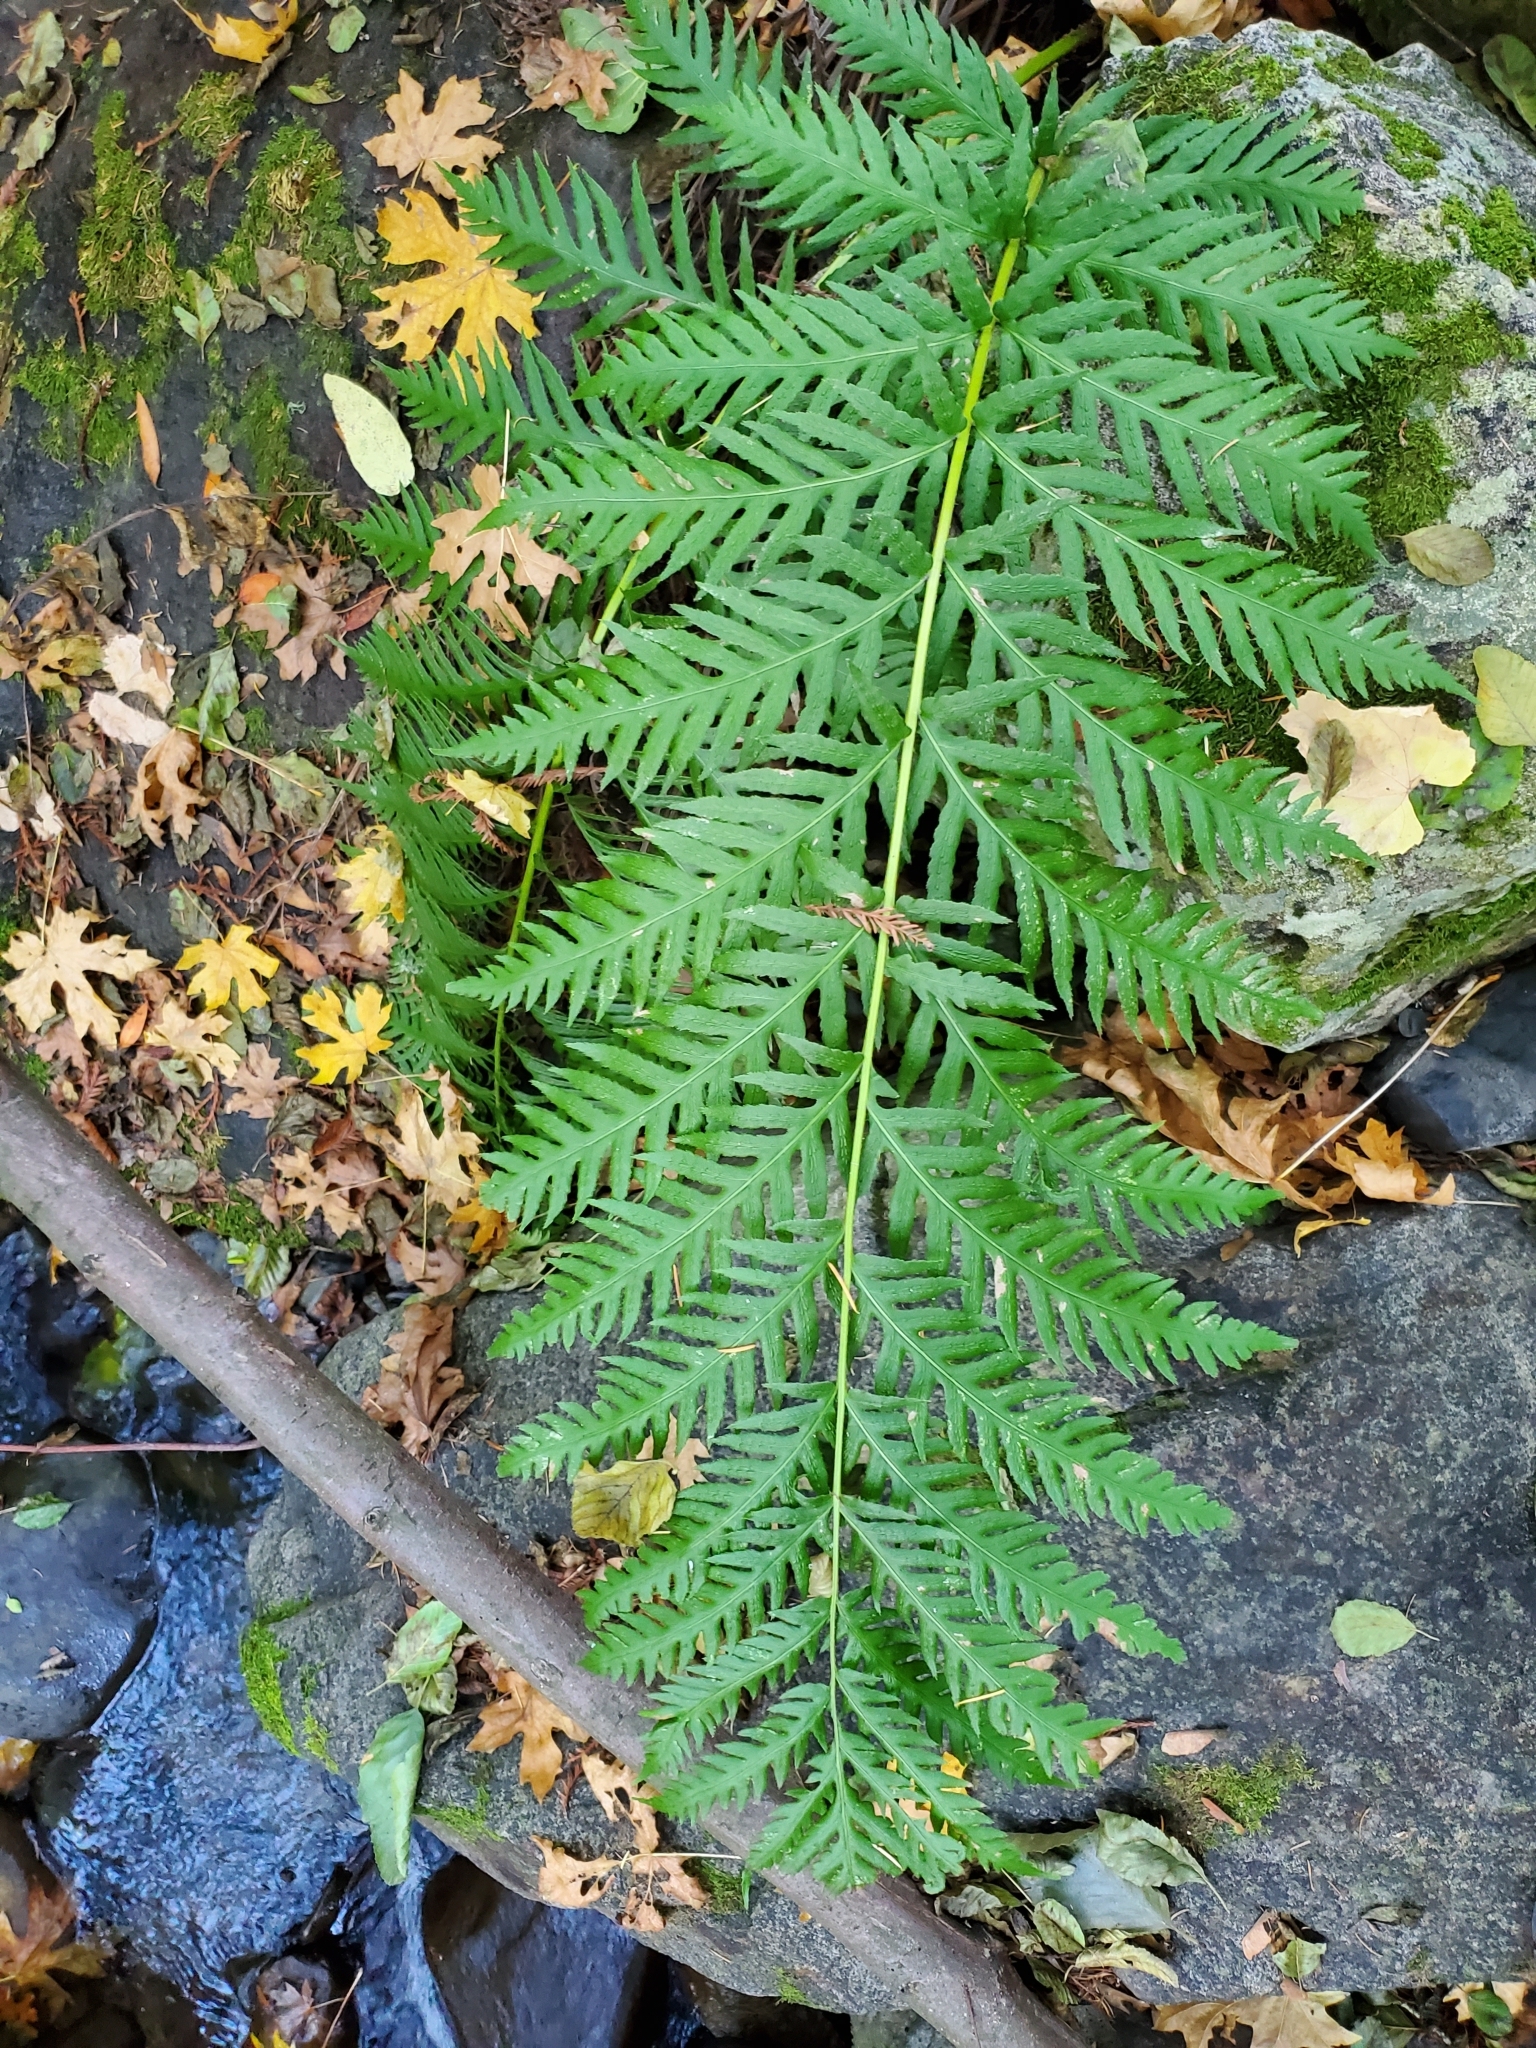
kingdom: Plantae
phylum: Tracheophyta
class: Polypodiopsida
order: Polypodiales
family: Blechnaceae
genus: Woodwardia
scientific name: Woodwardia fimbriata
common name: Giant chain fern
